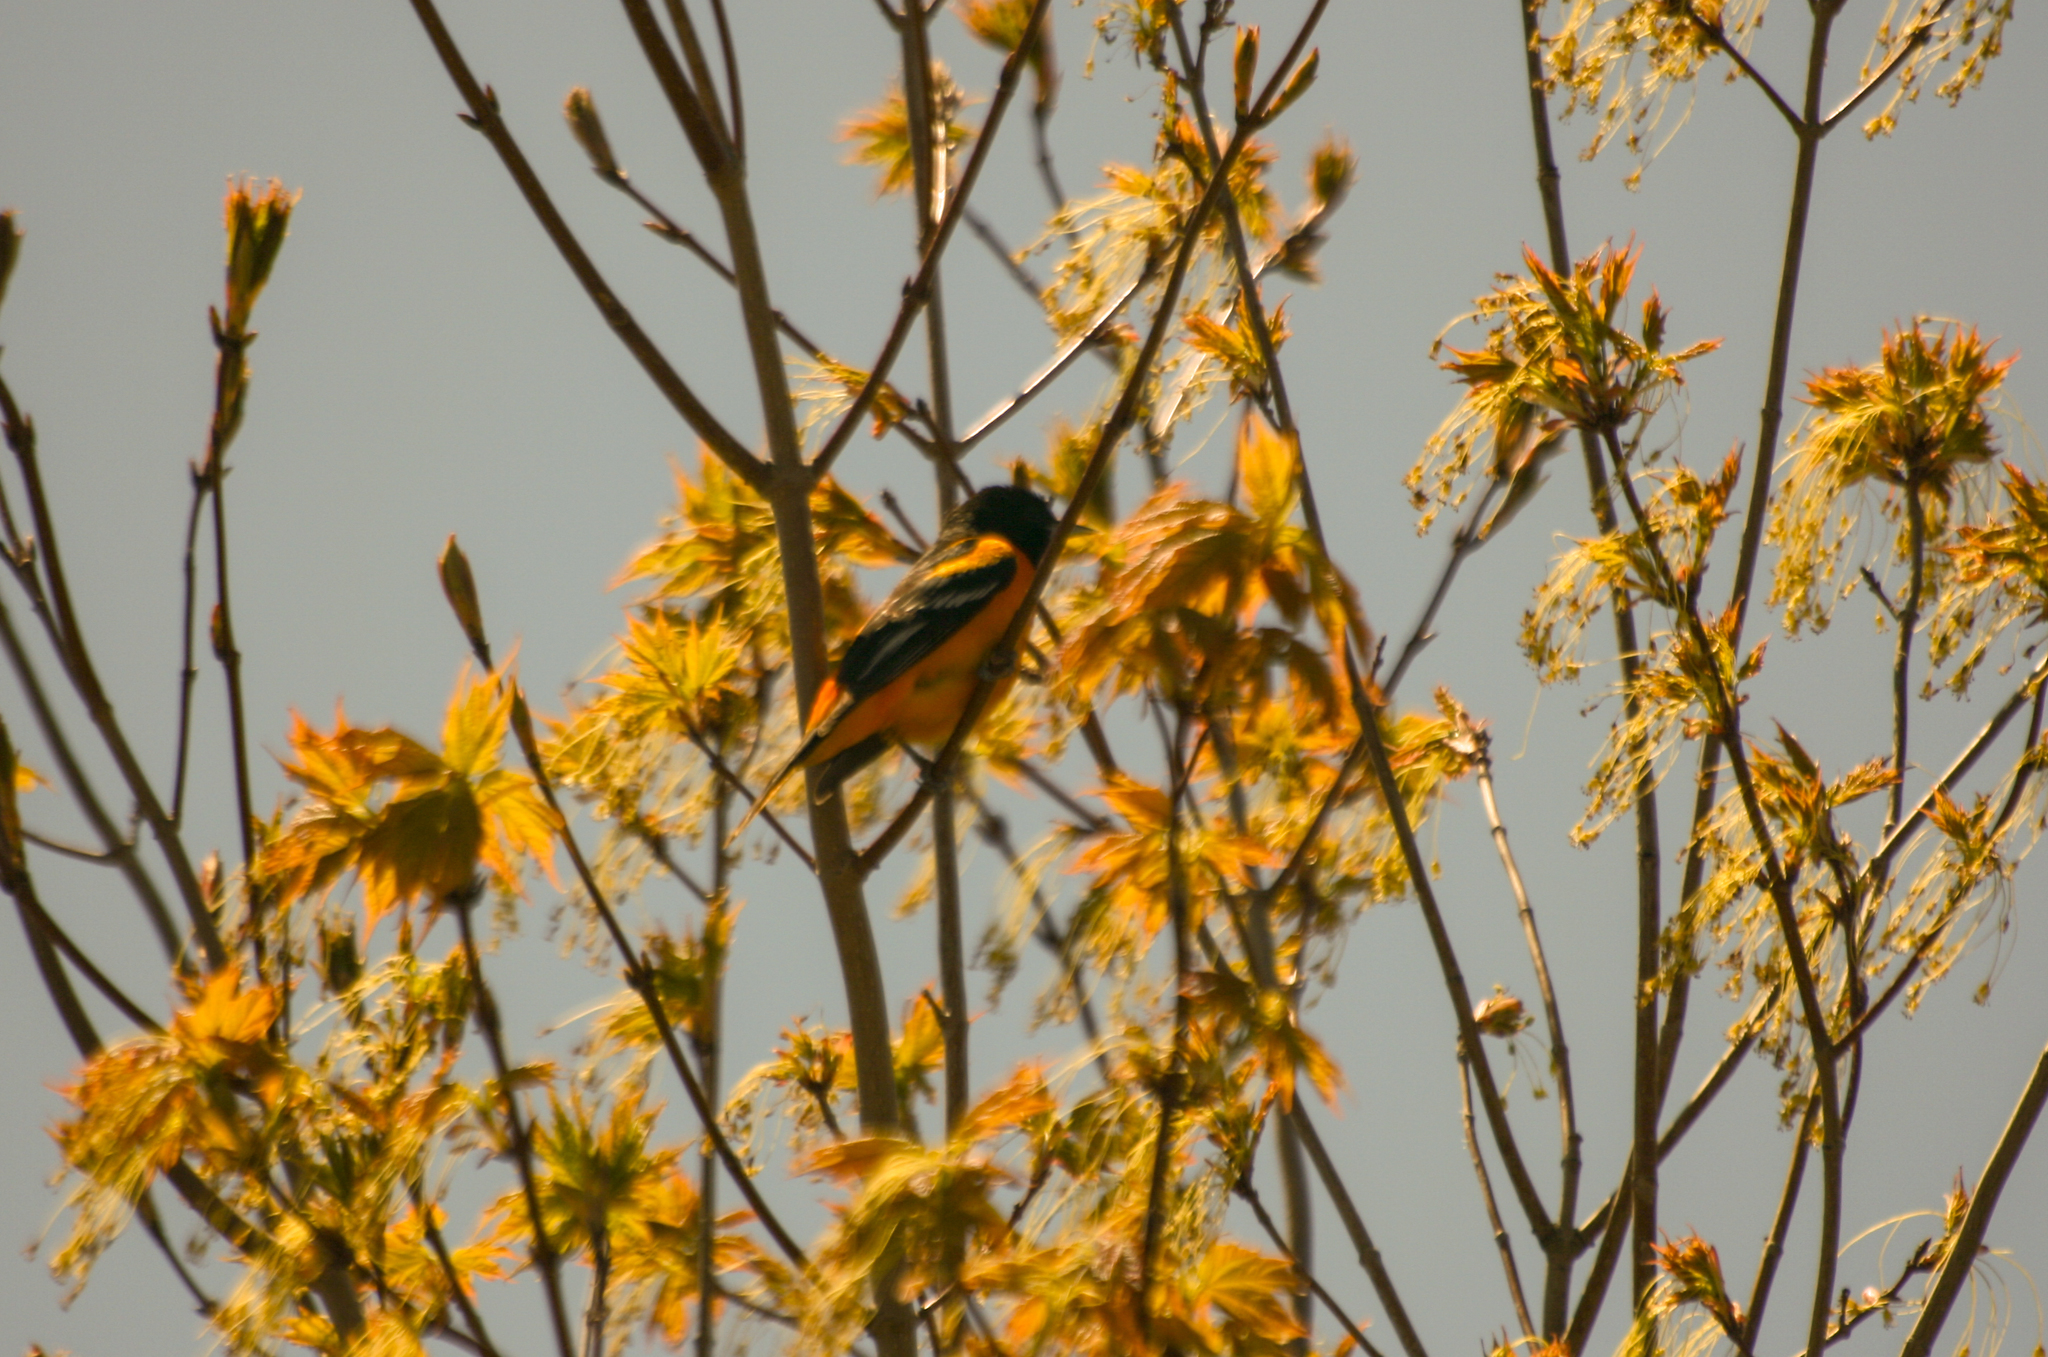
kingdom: Animalia
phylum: Chordata
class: Aves
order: Passeriformes
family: Icteridae
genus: Icterus
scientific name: Icterus galbula
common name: Baltimore oriole
